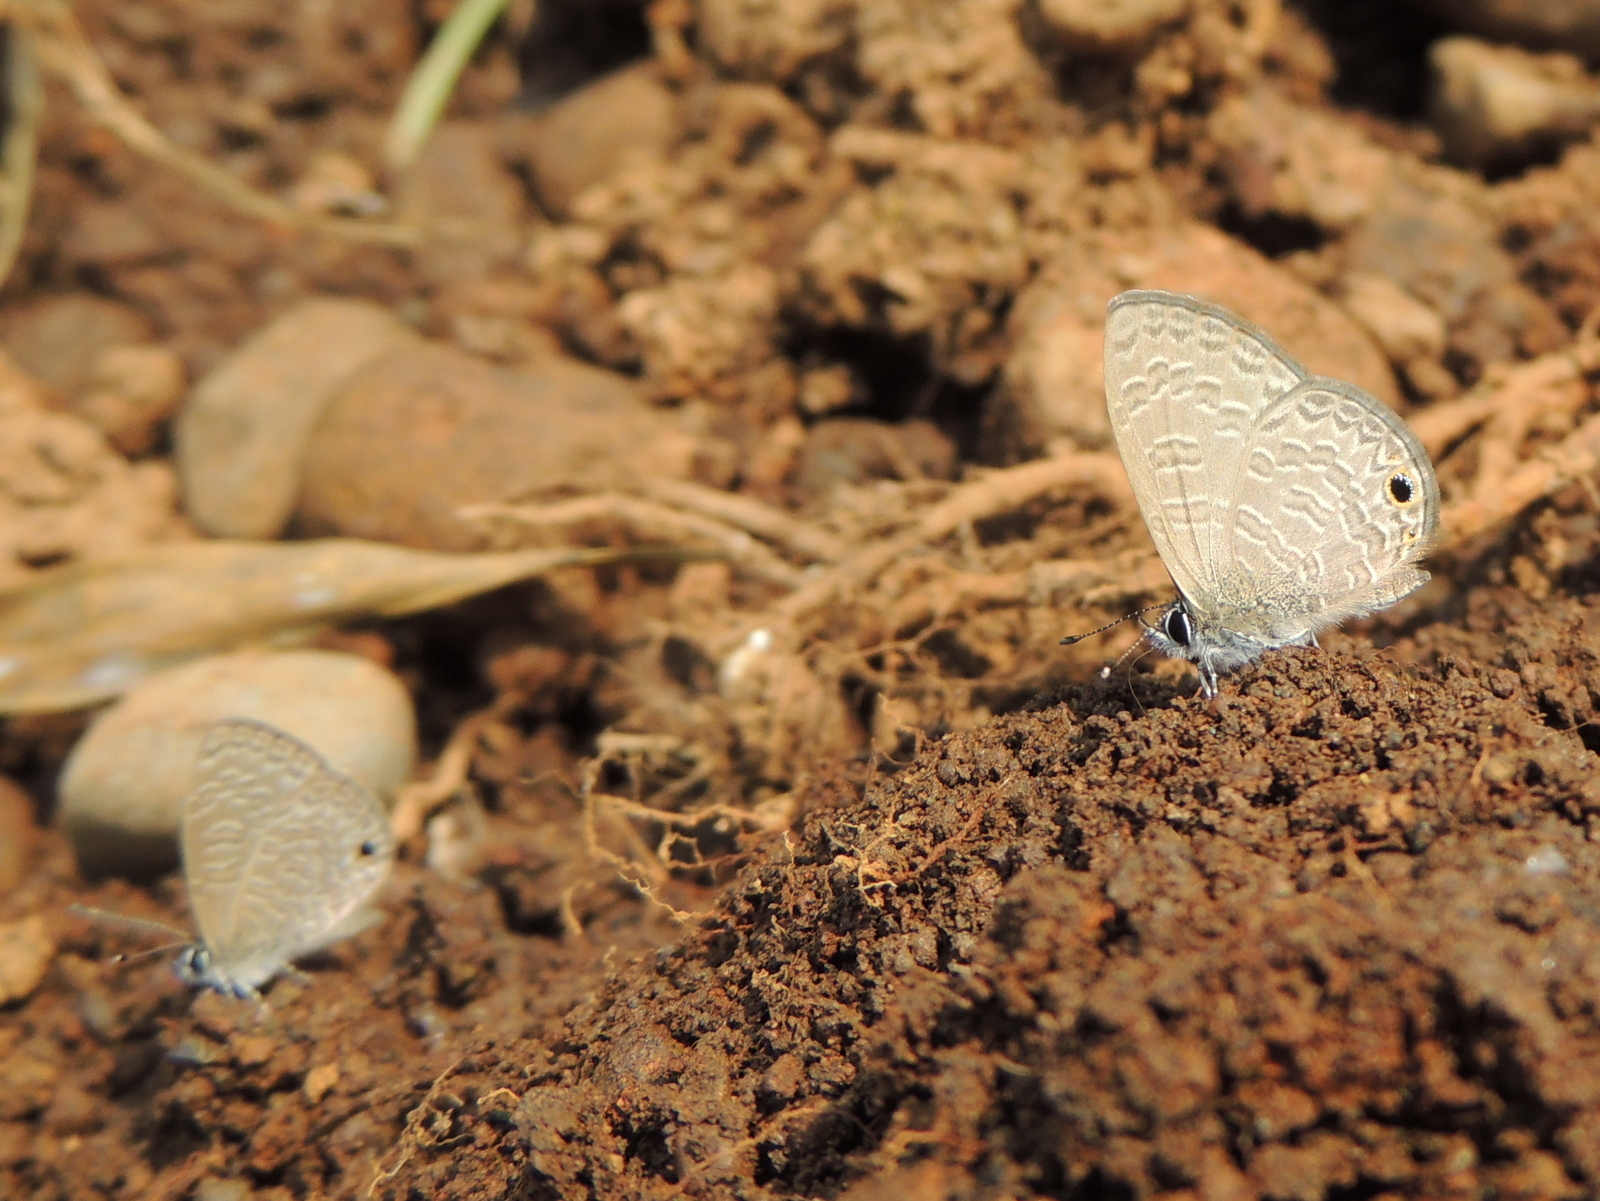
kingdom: Animalia
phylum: Arthropoda
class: Insecta
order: Lepidoptera
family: Lycaenidae
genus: Prosotas
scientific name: Prosotas dubiosa
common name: Tailless lineblue
